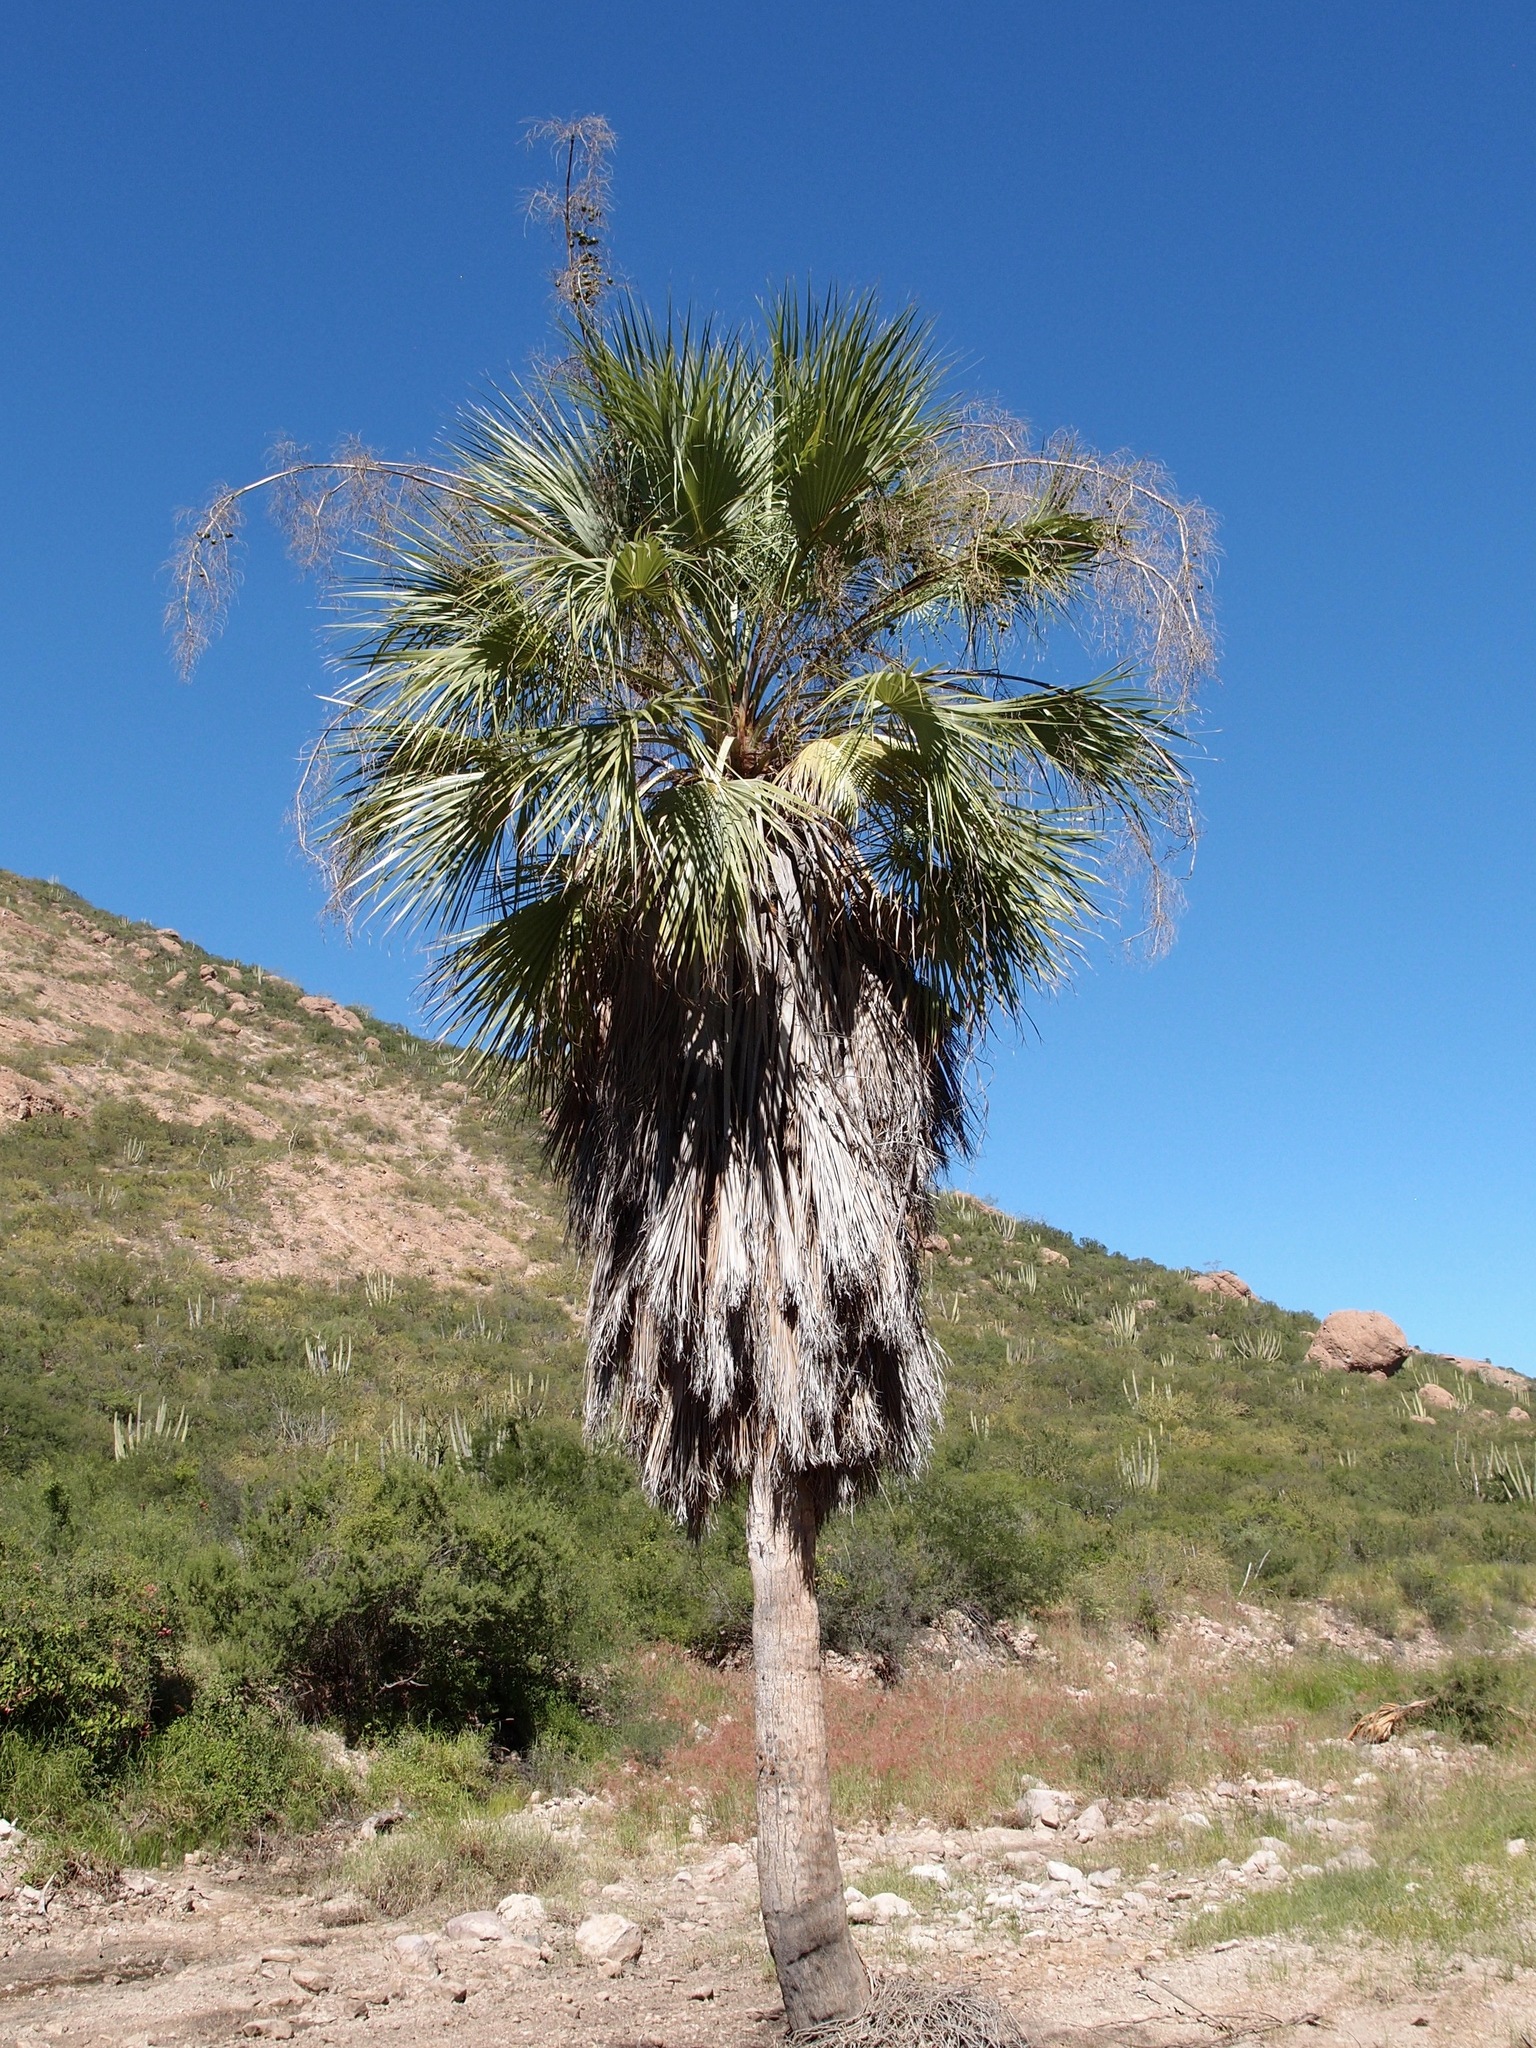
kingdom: Plantae
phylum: Tracheophyta
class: Liliopsida
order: Arecales
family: Arecaceae
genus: Brahea
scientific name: Brahea brandegeei
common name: San jose hesper palm
